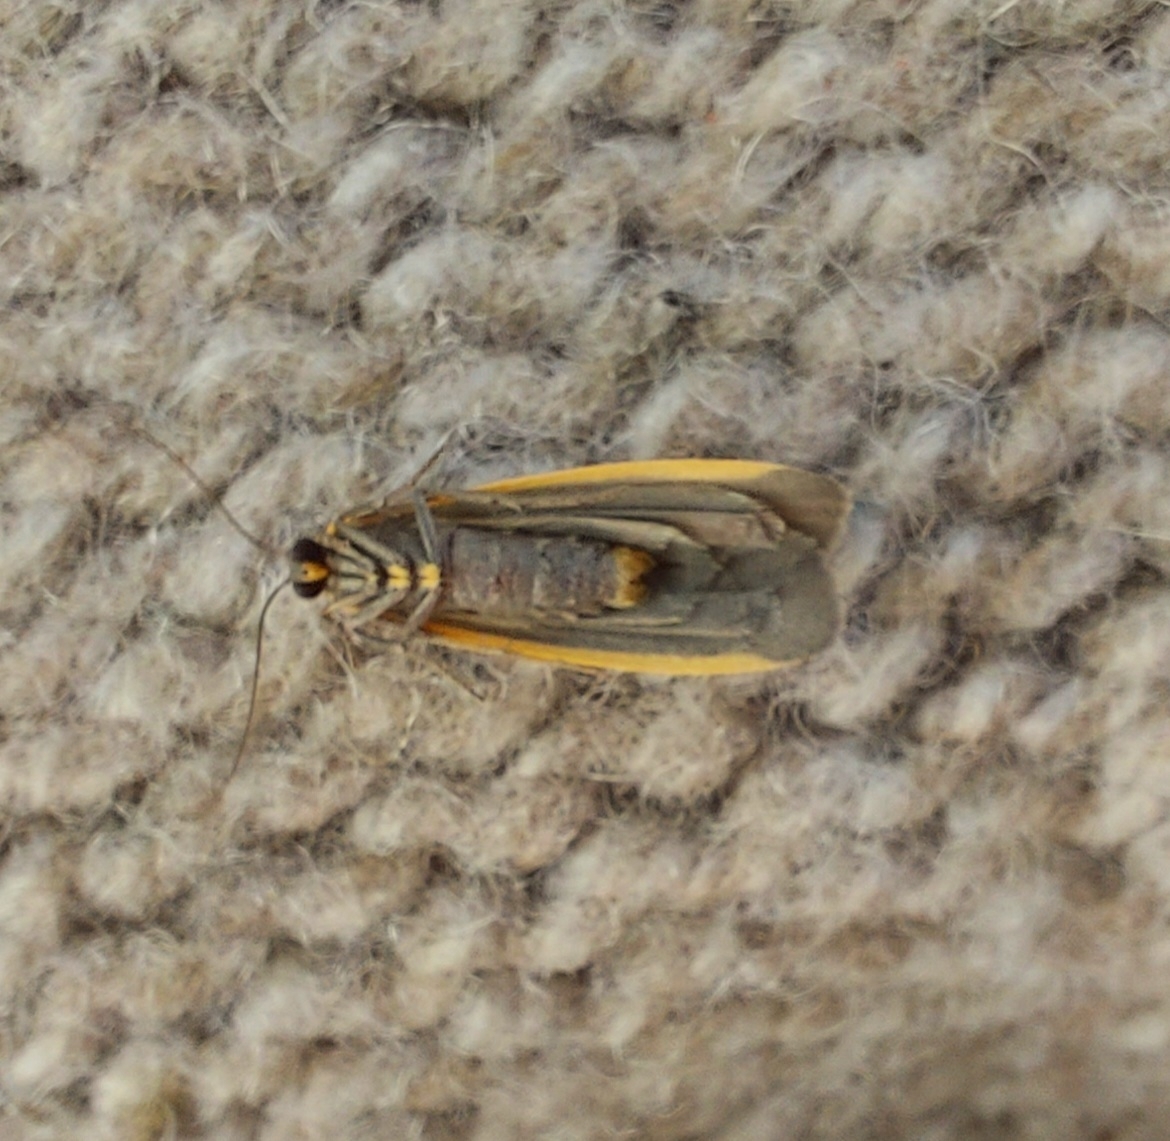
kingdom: Animalia
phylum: Arthropoda
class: Insecta
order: Lepidoptera
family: Erebidae
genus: Manulea
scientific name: Manulea bicolor
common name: Bicolored moth
